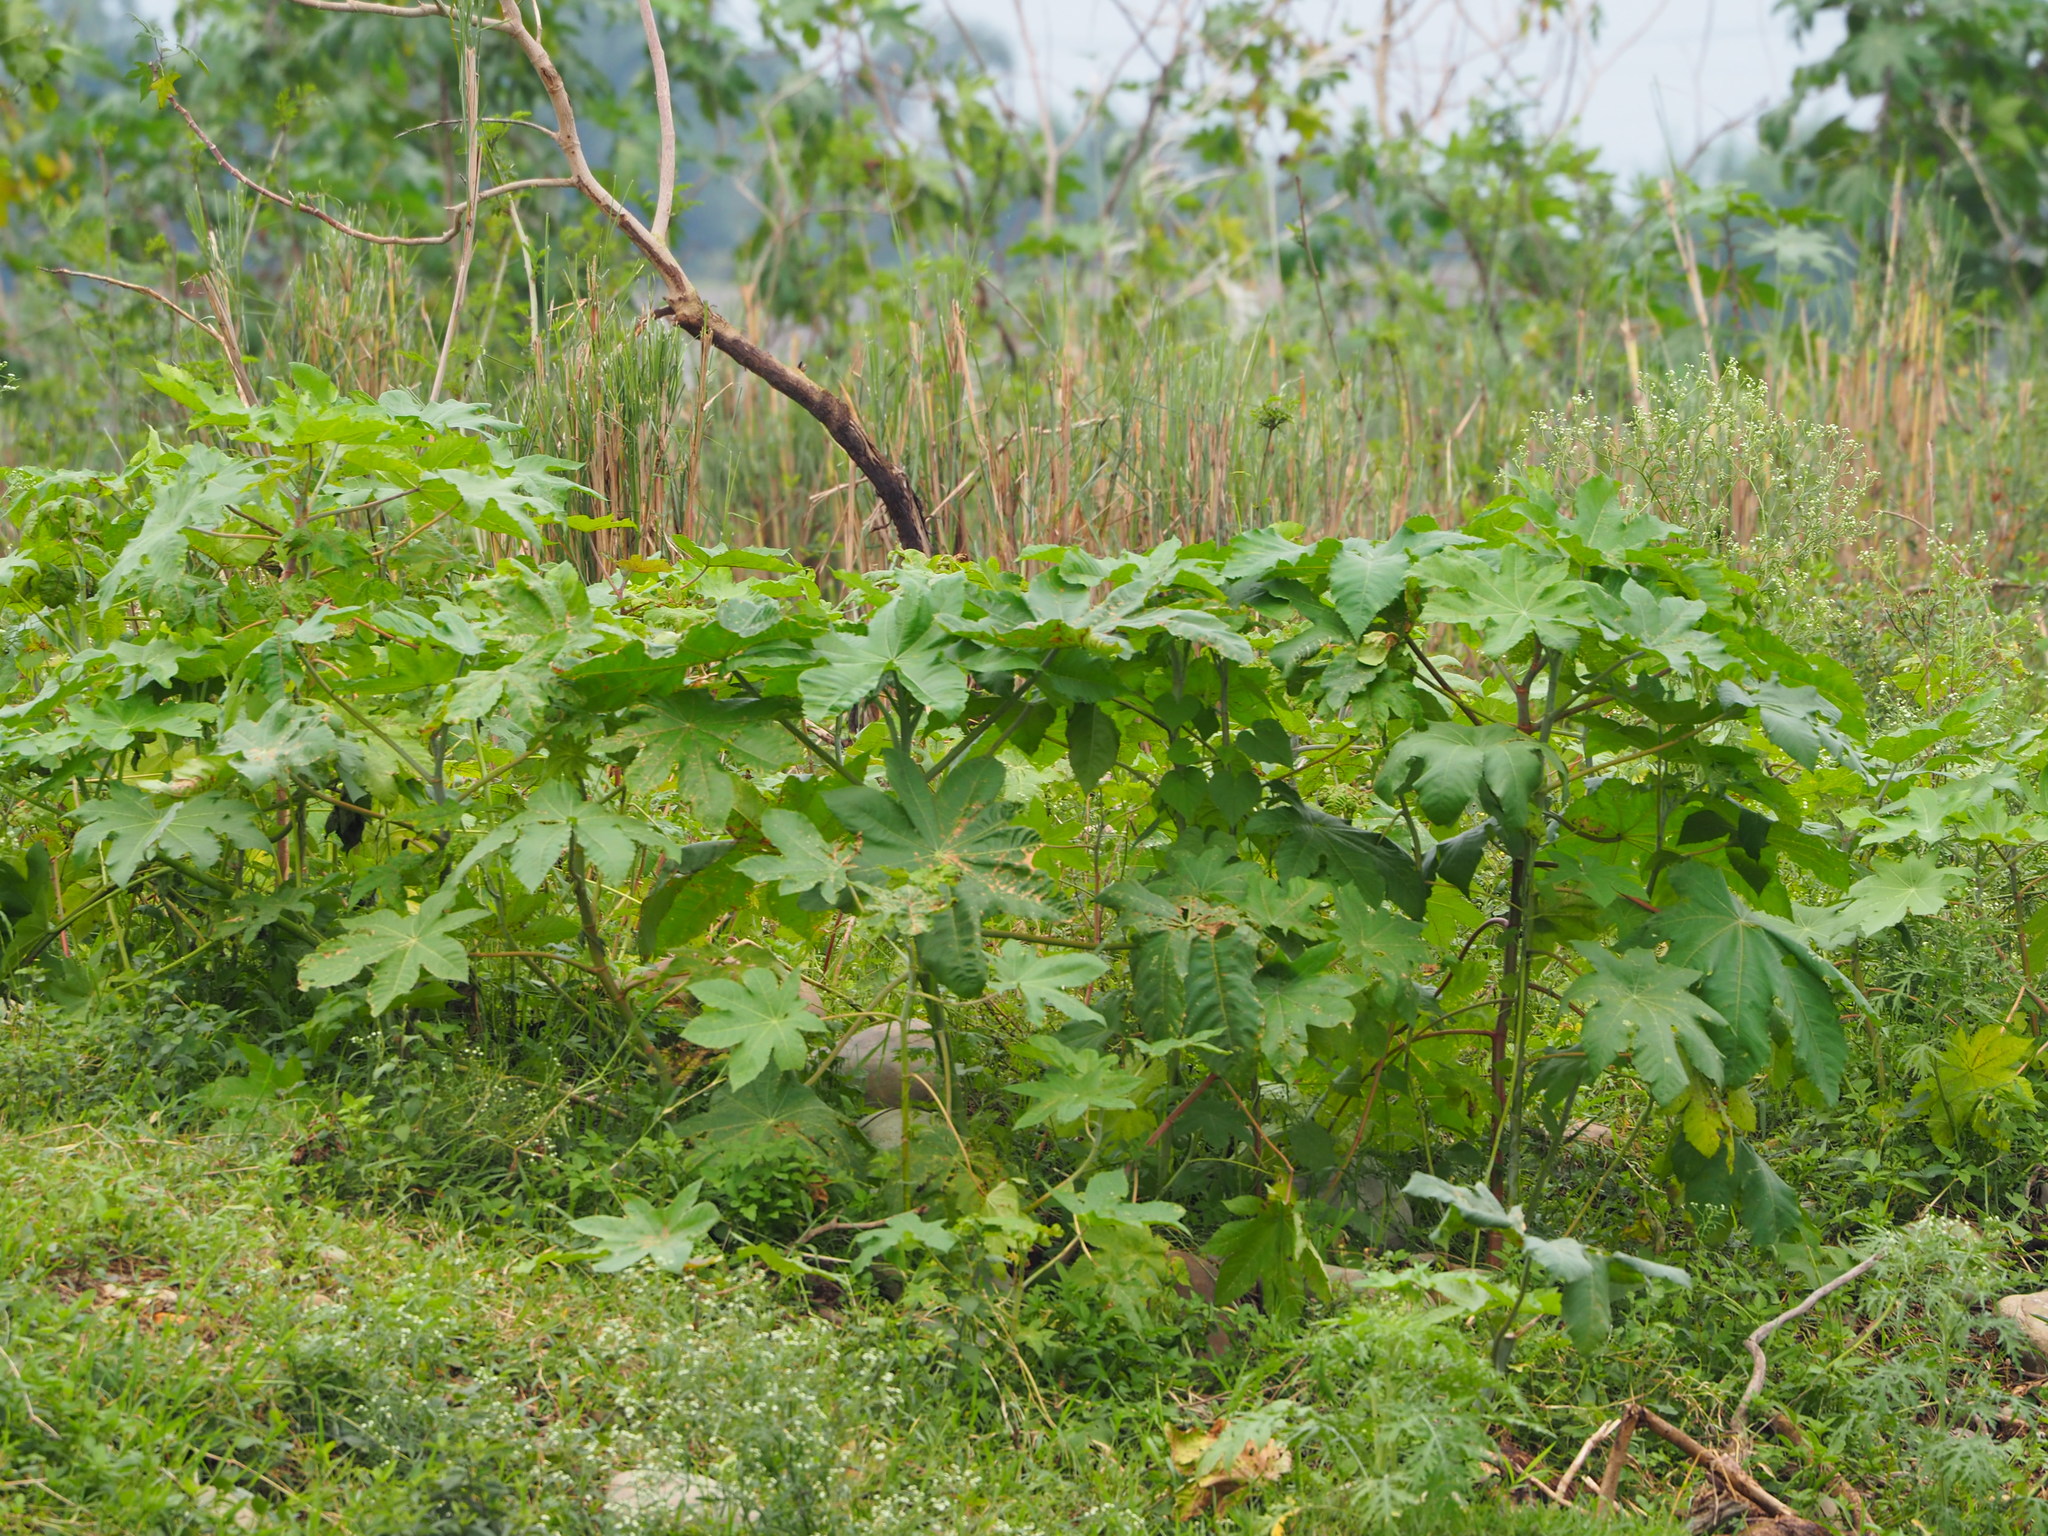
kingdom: Plantae
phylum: Tracheophyta
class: Magnoliopsida
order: Malpighiales
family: Euphorbiaceae
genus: Ricinus
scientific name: Ricinus communis
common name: Castor-oil-plant
